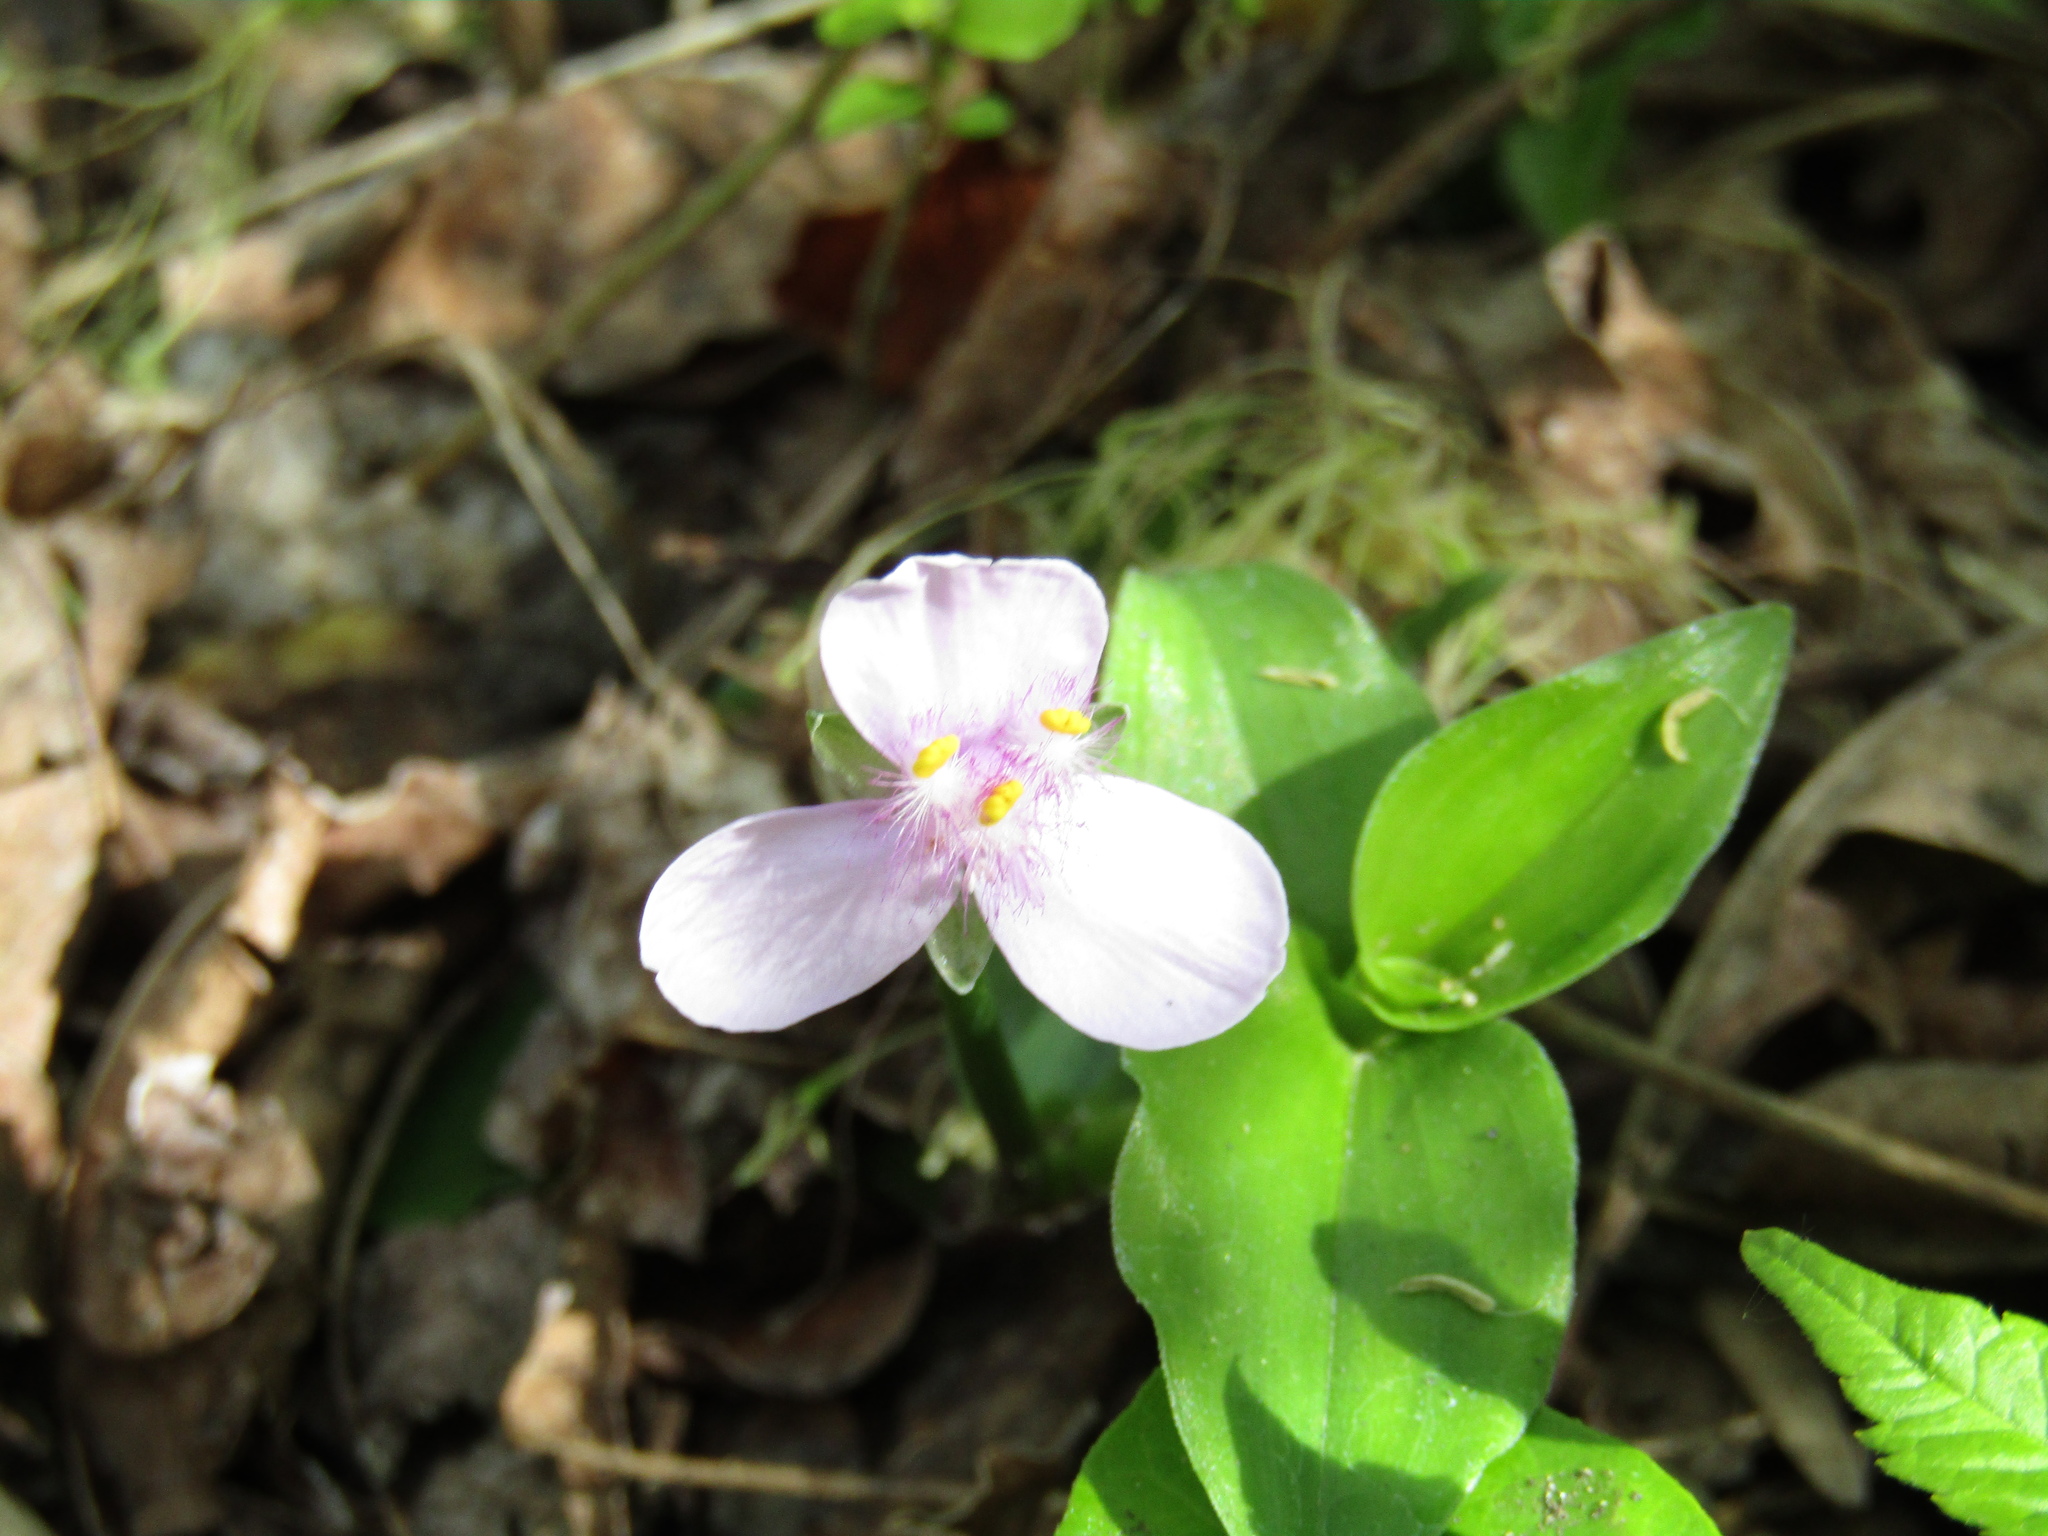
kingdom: Plantae
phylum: Tracheophyta
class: Liliopsida
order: Commelinales
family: Commelinaceae
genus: Callisia
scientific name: Callisia diuretica
